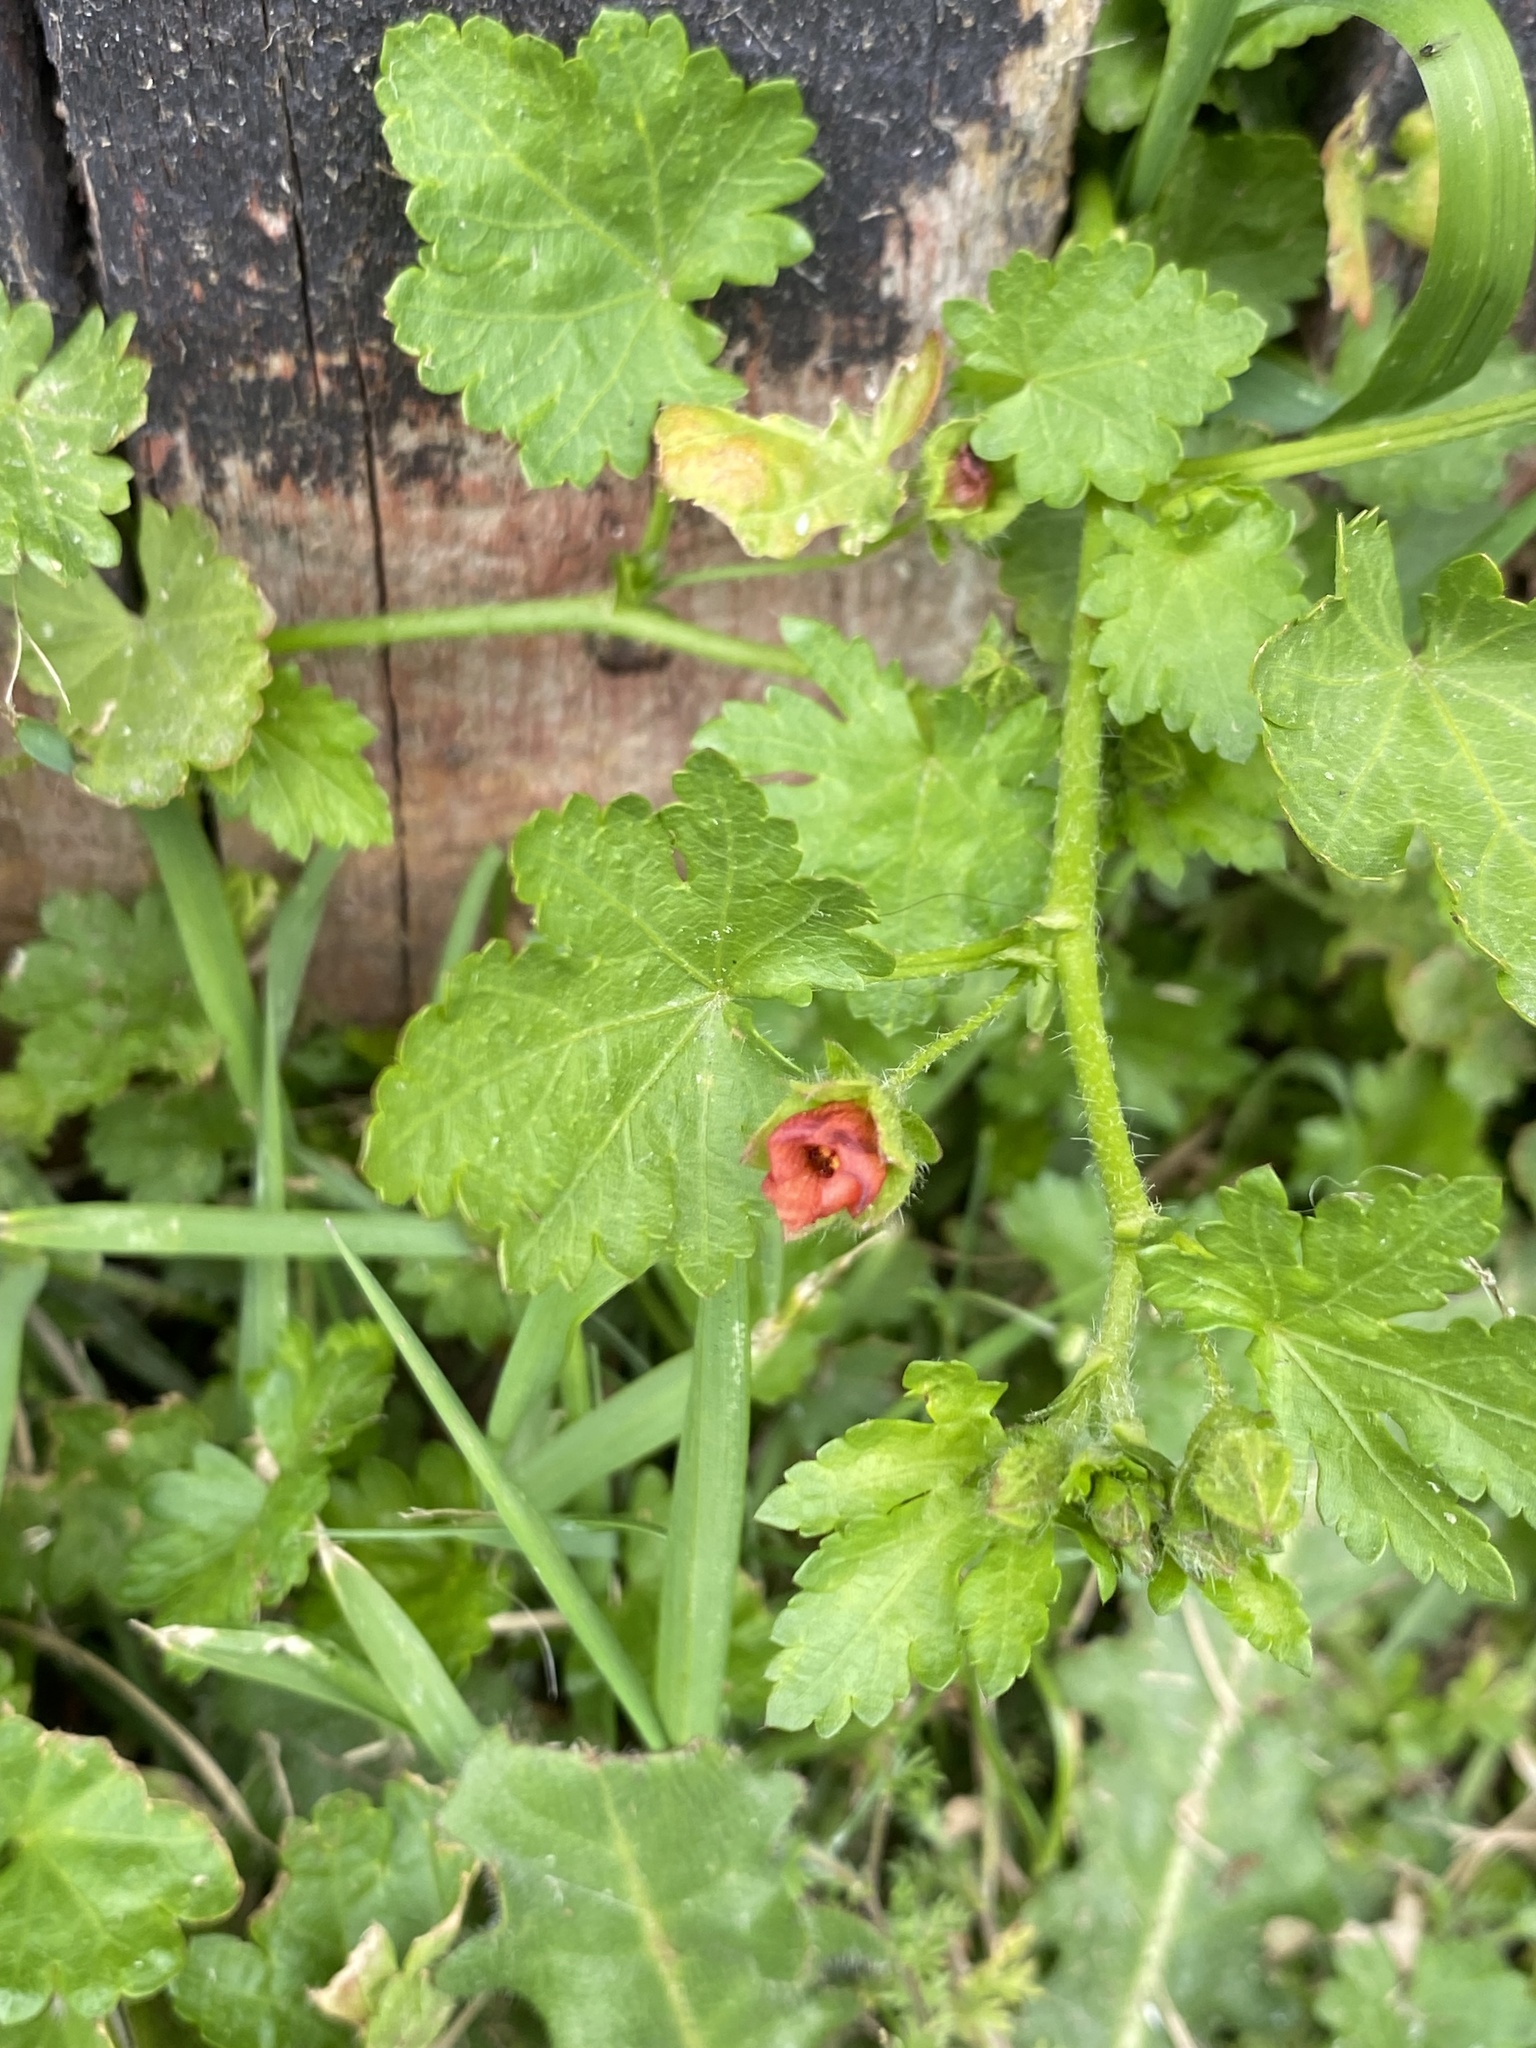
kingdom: Plantae
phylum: Tracheophyta
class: Magnoliopsida
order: Malvales
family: Malvaceae
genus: Modiola
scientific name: Modiola caroliniana
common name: Carolina bristlemallow
